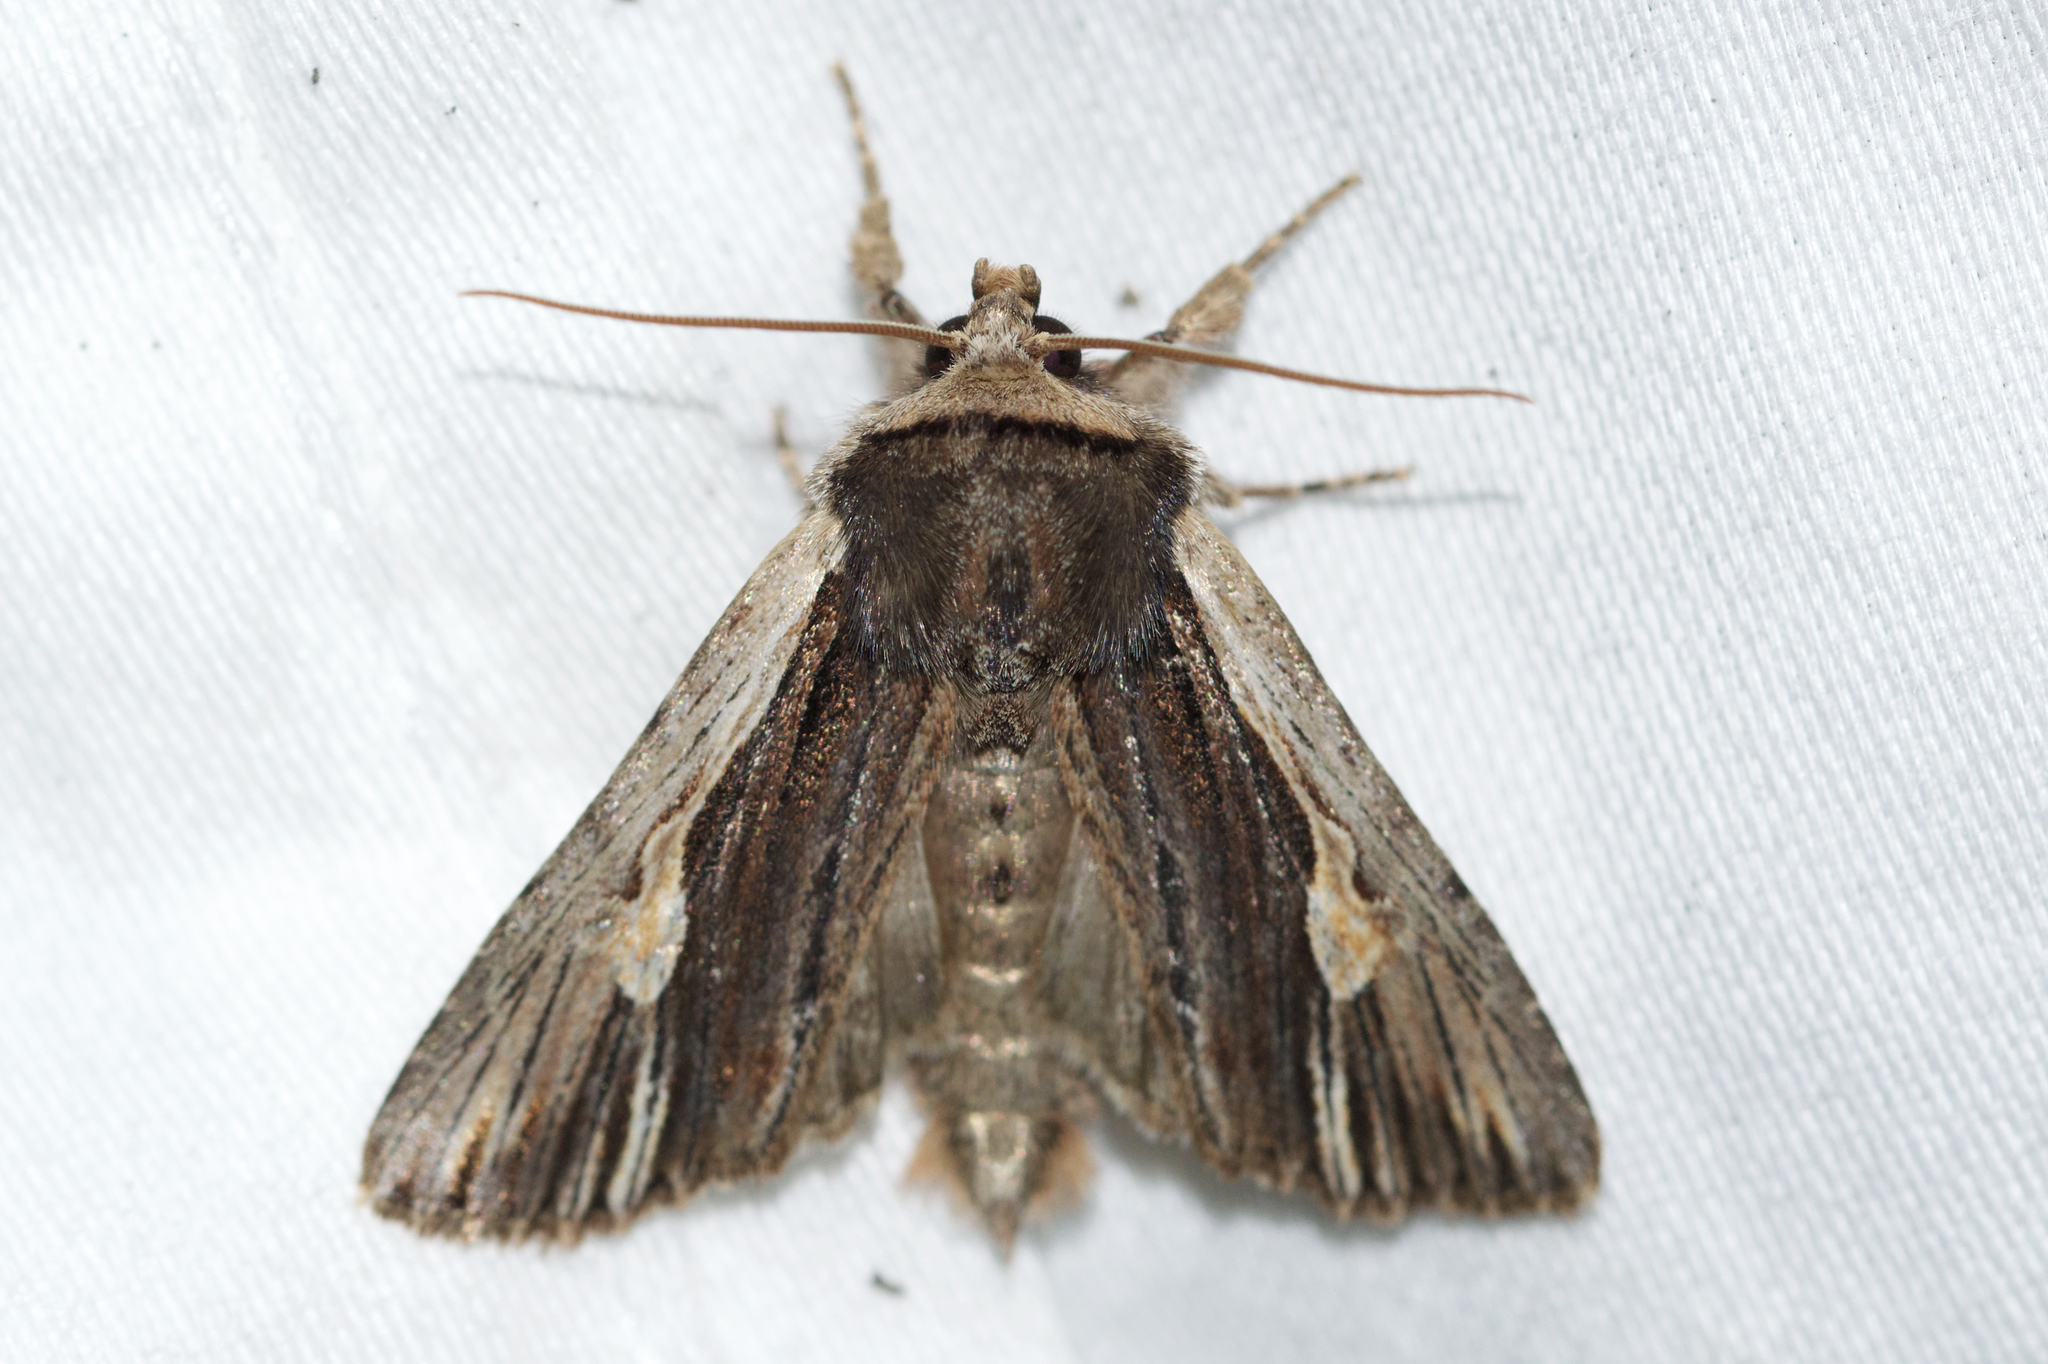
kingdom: Animalia
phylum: Arthropoda
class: Insecta
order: Lepidoptera
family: Noctuidae
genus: Achatia
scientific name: Achatia evicta
